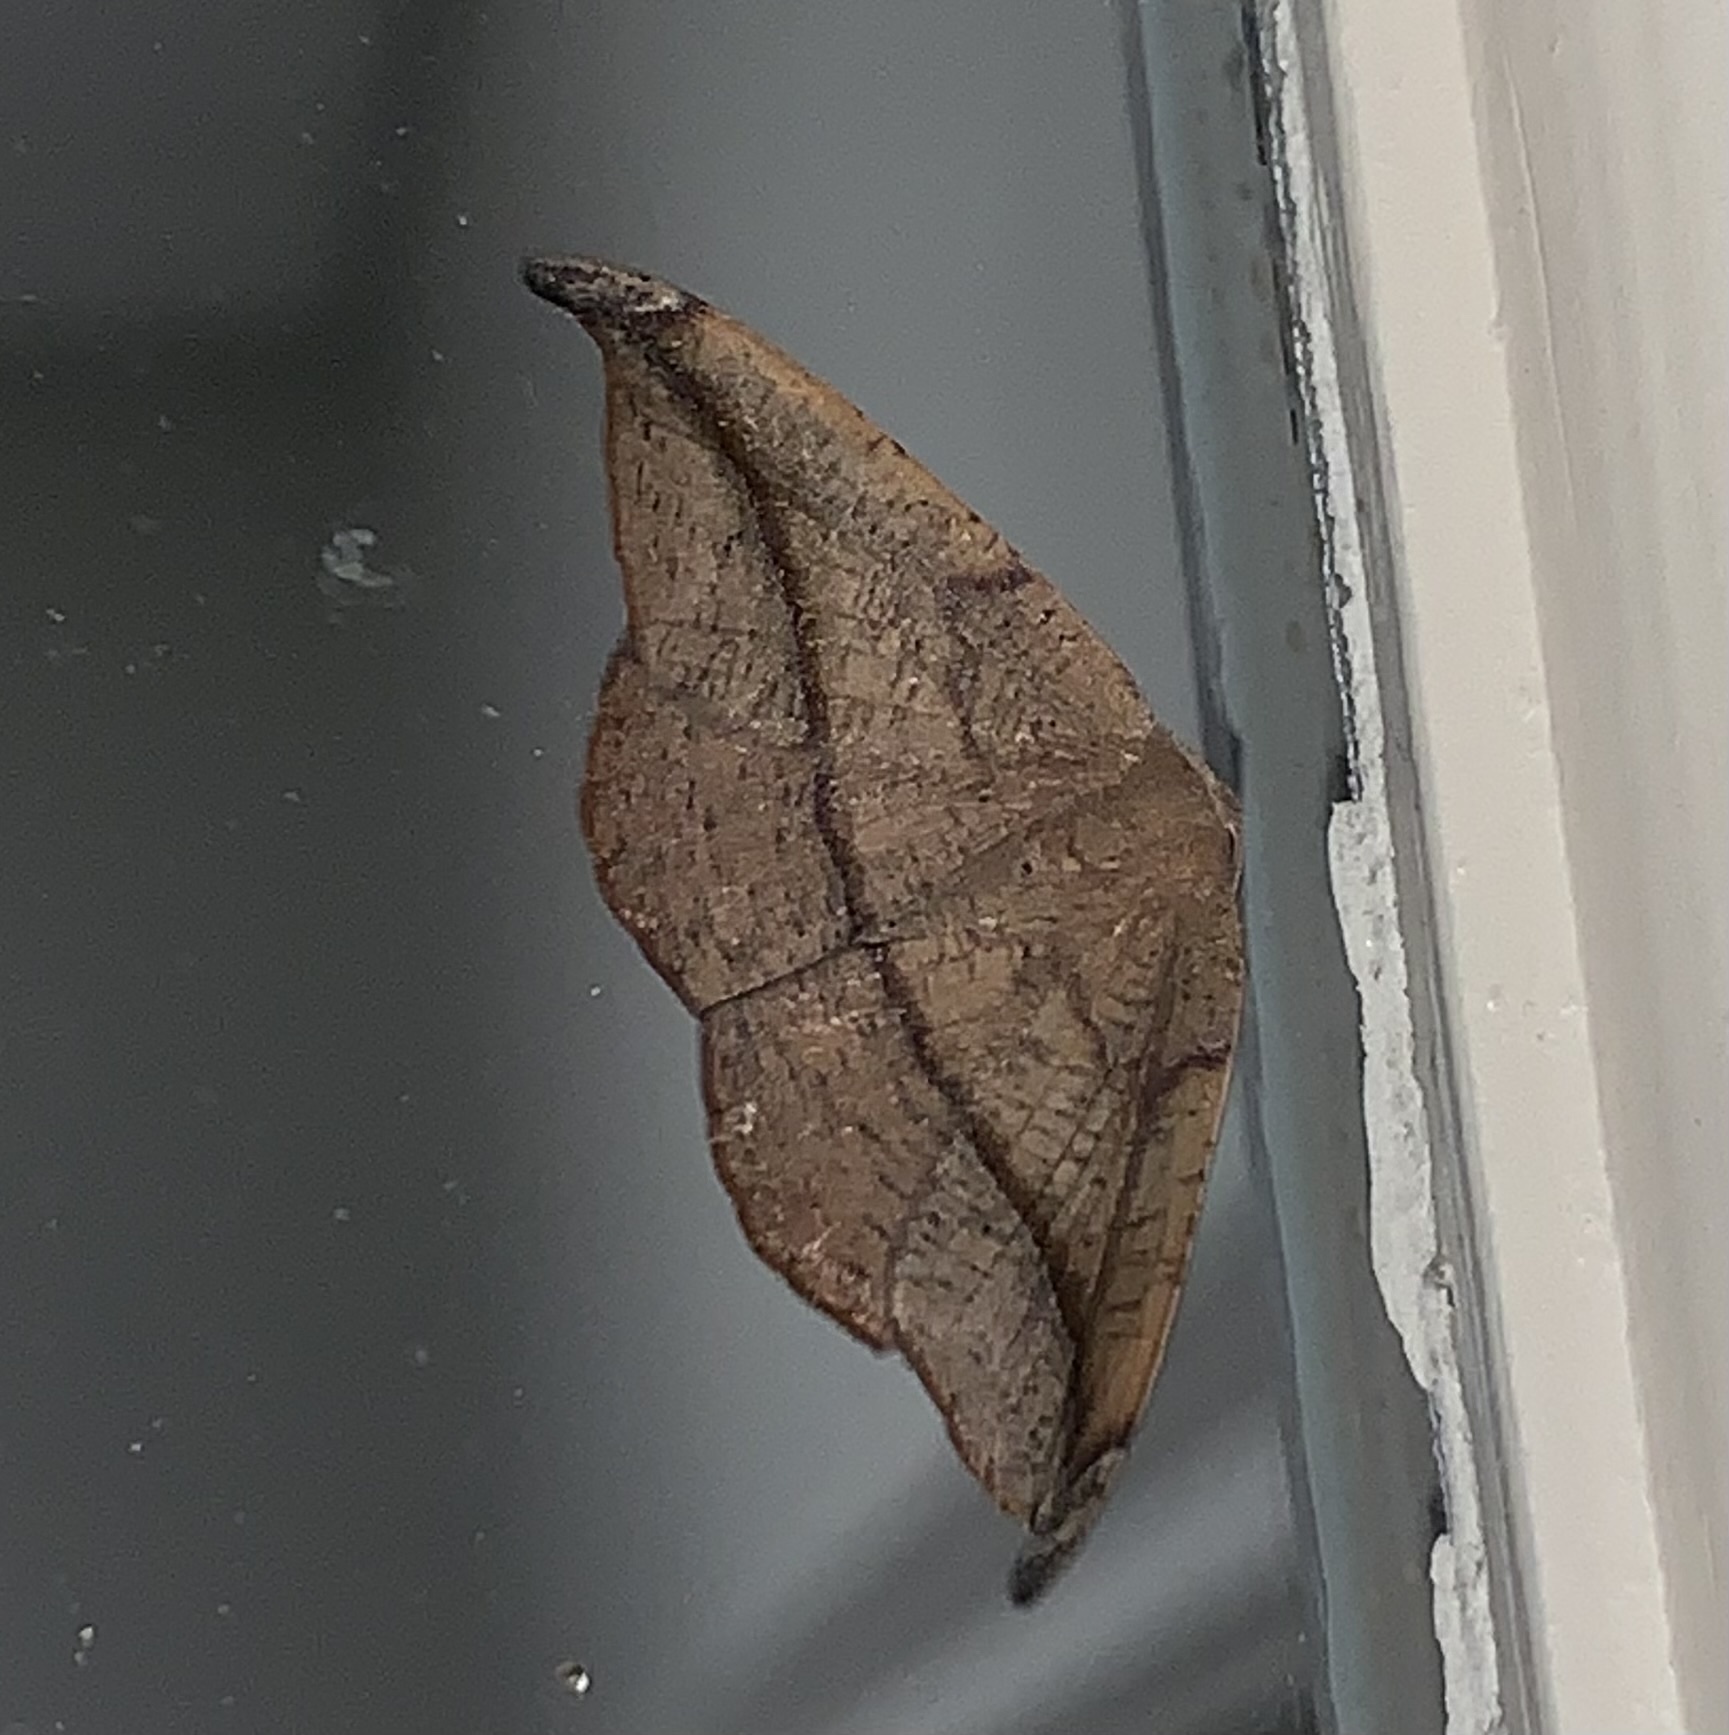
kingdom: Animalia
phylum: Arthropoda
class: Insecta
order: Lepidoptera
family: Geometridae
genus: Patalene
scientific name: Patalene olyzonaria
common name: Juniper geometer moth
